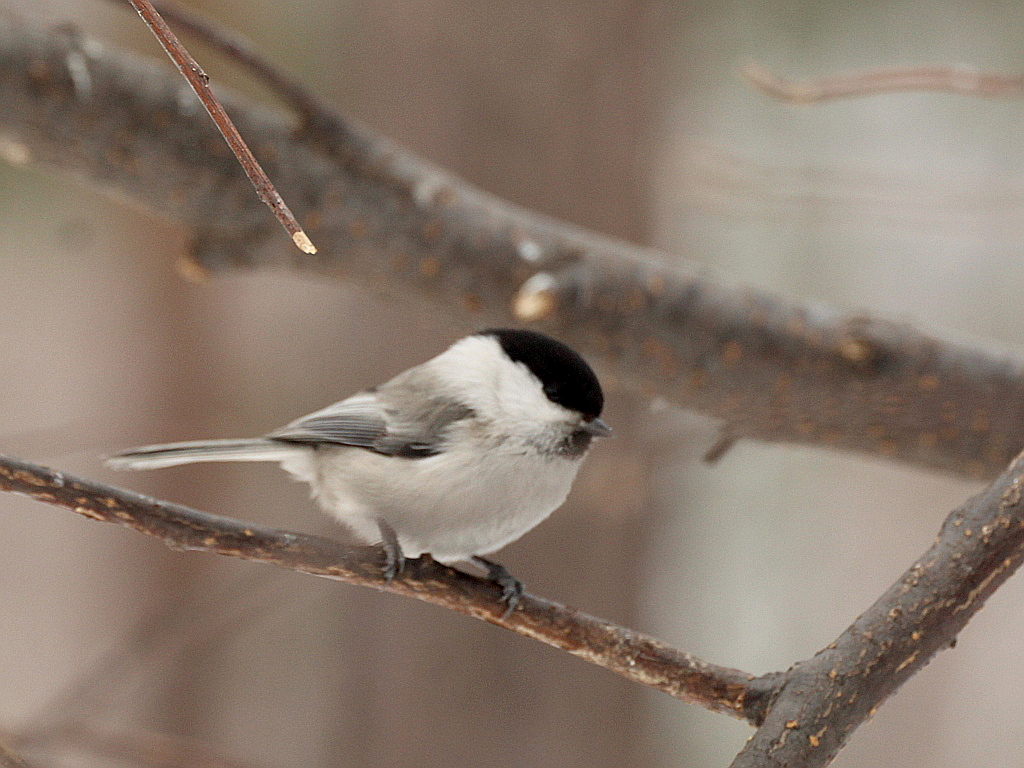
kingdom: Animalia
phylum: Chordata
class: Aves
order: Passeriformes
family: Paridae
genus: Poecile
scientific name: Poecile montanus
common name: Willow tit
